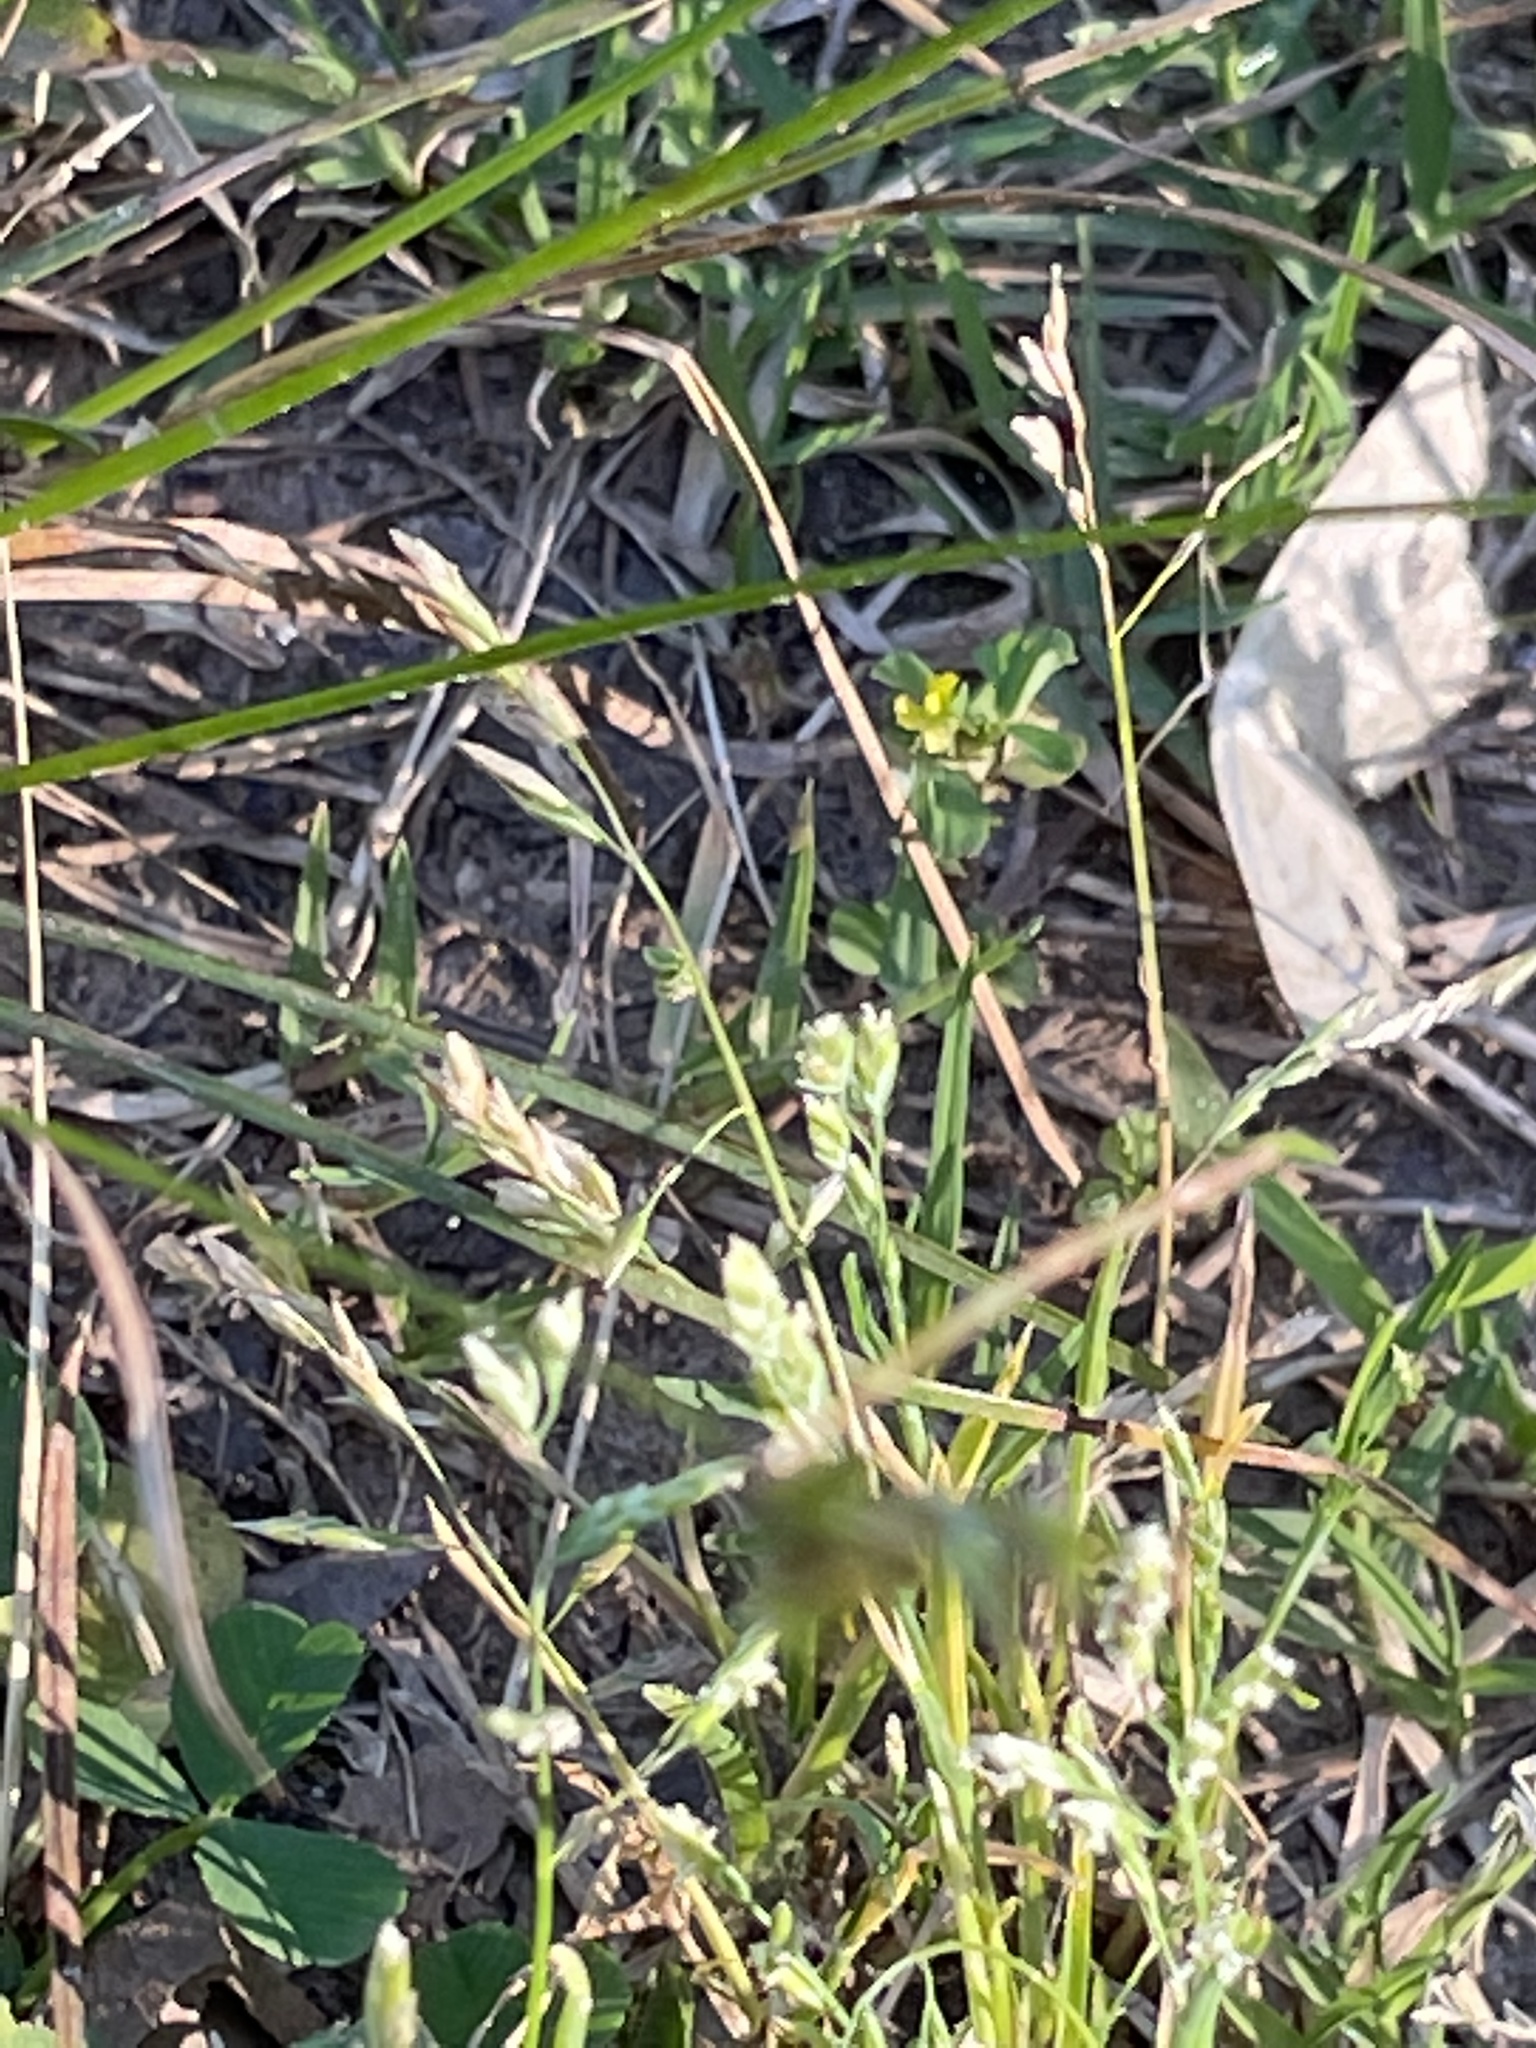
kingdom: Animalia
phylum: Arthropoda
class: Insecta
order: Lepidoptera
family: Geometridae
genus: Scopula
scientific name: Scopula limboundata
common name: Large lace border
